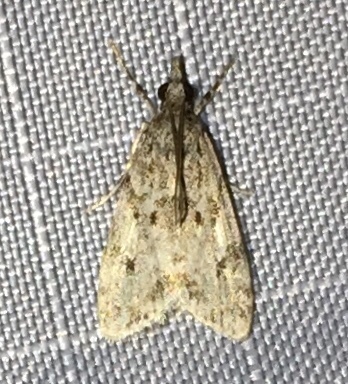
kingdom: Animalia
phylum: Arthropoda
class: Insecta
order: Lepidoptera
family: Crambidae
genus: Eudonia
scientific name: Eudonia heterosalis
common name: Mcdunnough's eudonia
